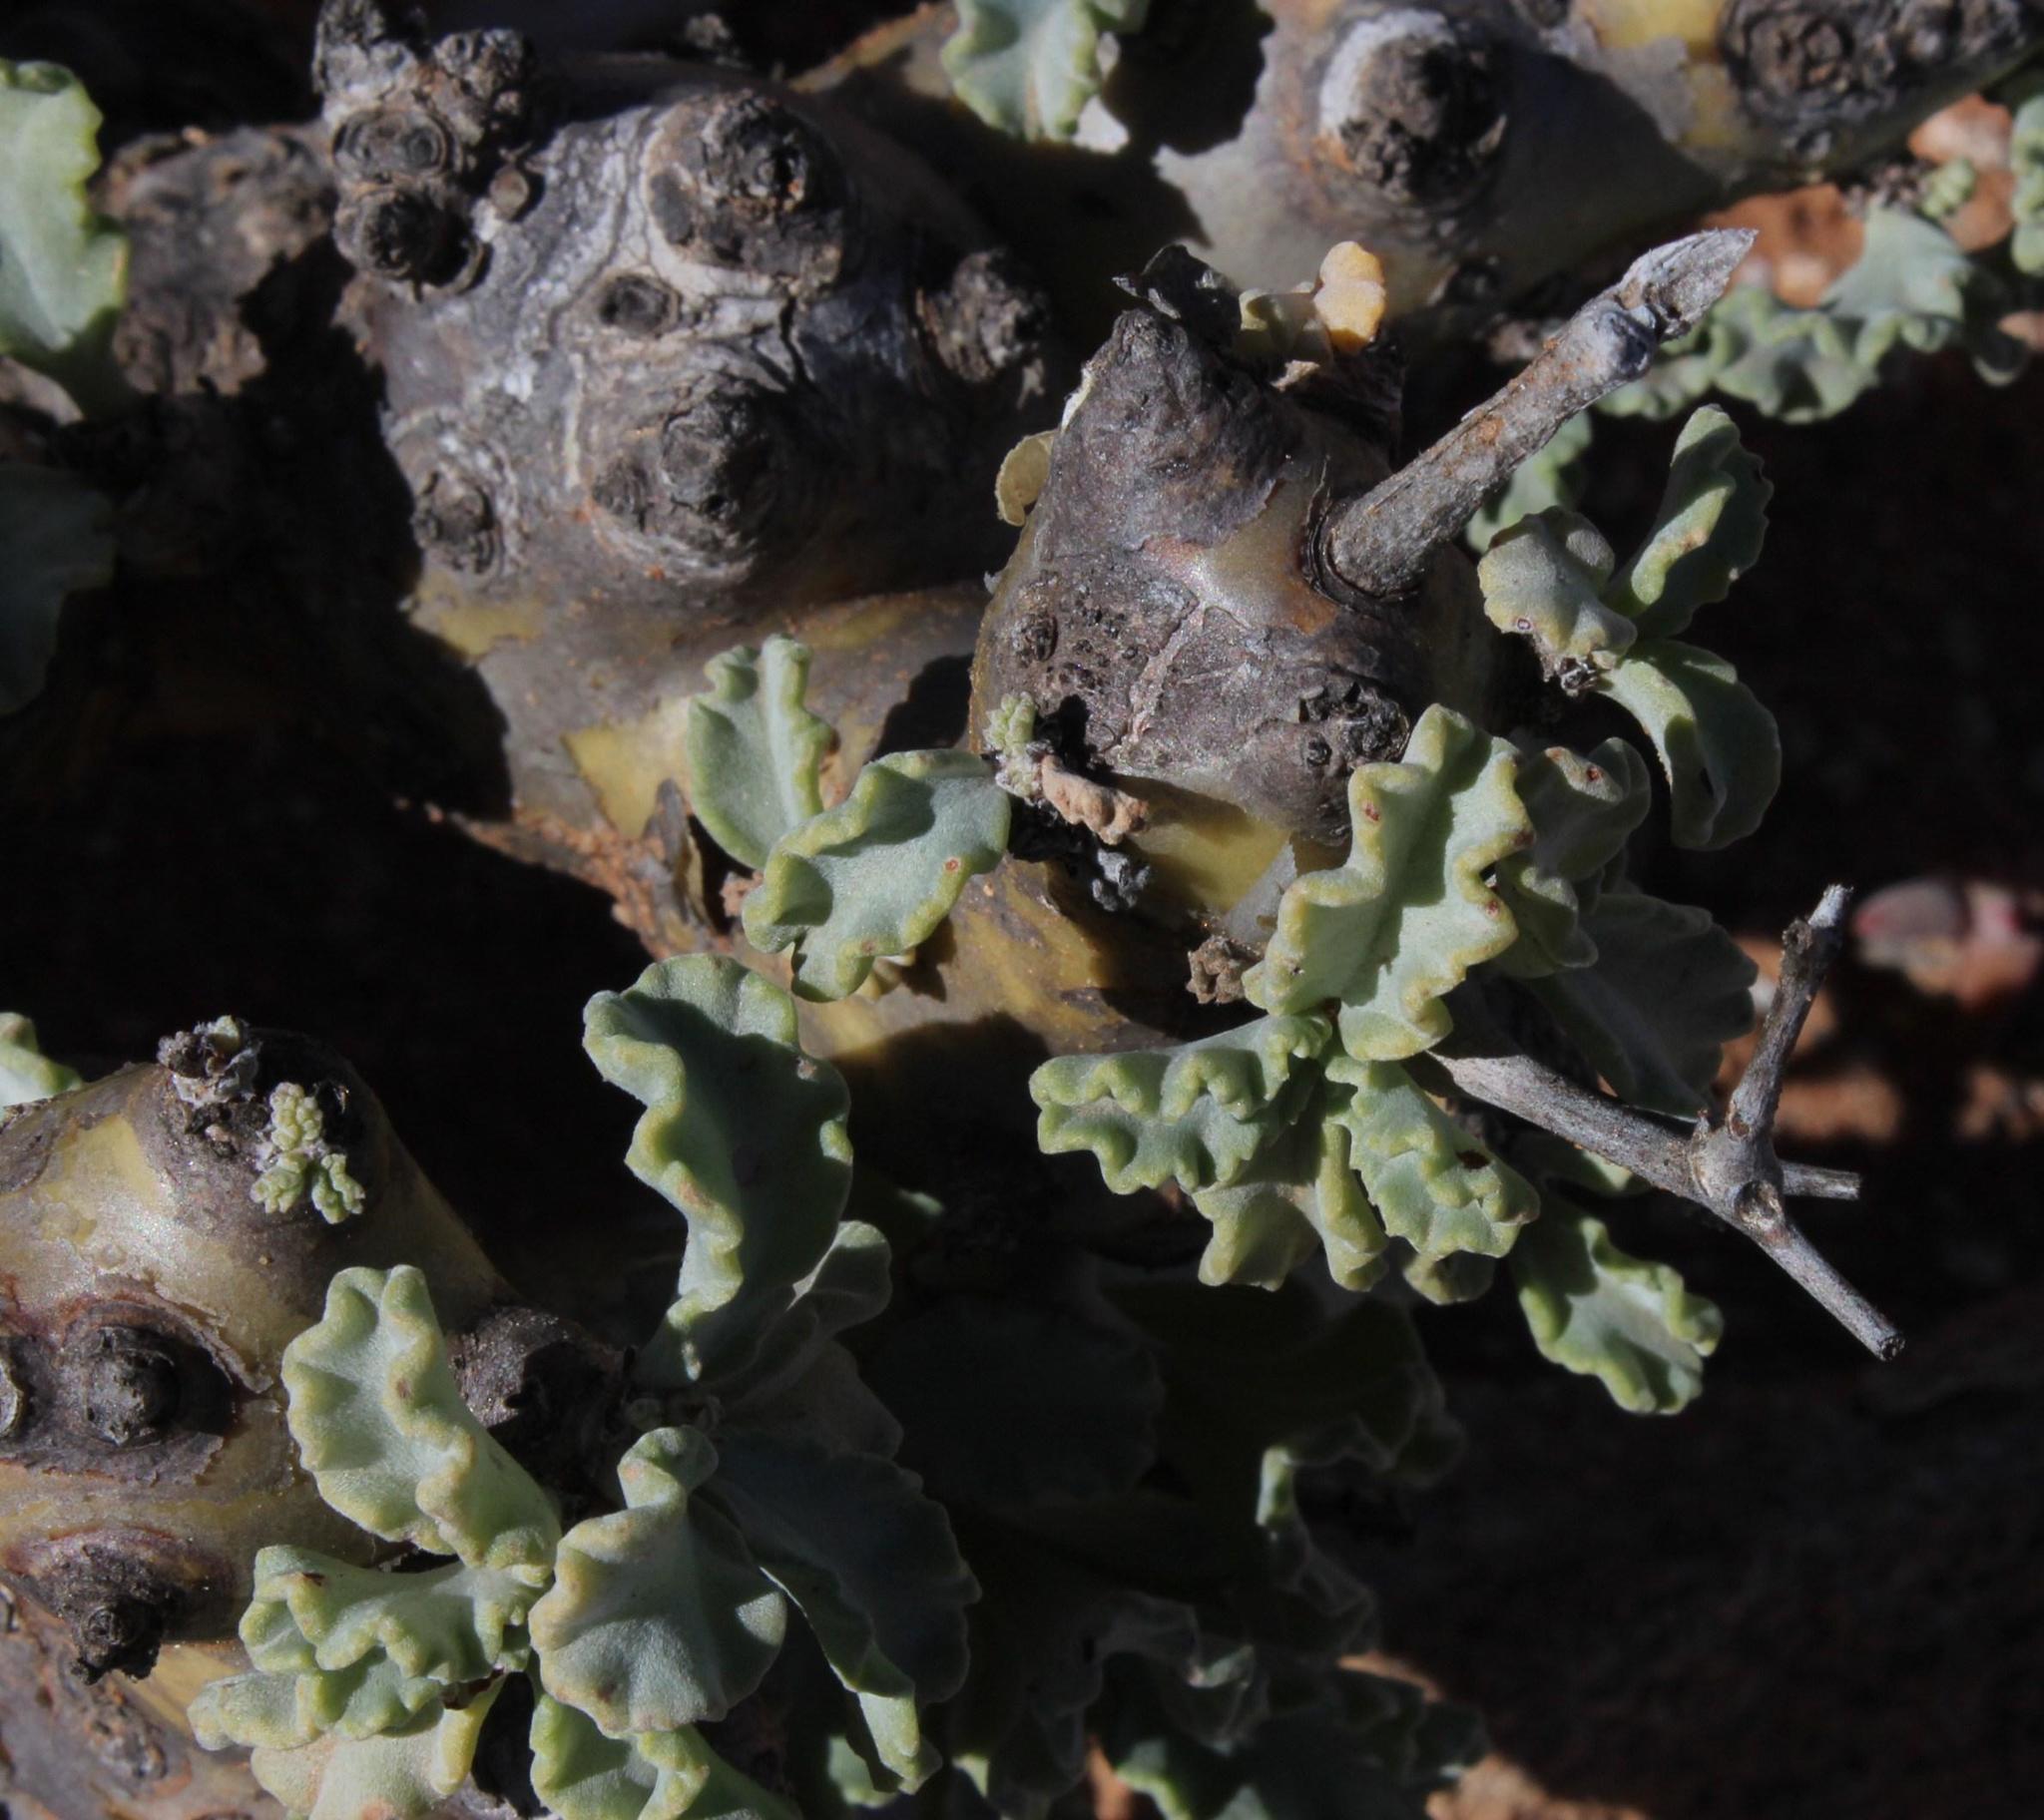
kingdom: Plantae
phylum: Tracheophyta
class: Magnoliopsida
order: Geraniales
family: Geraniaceae
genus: Pelargonium
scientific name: Pelargonium klinghardtense
